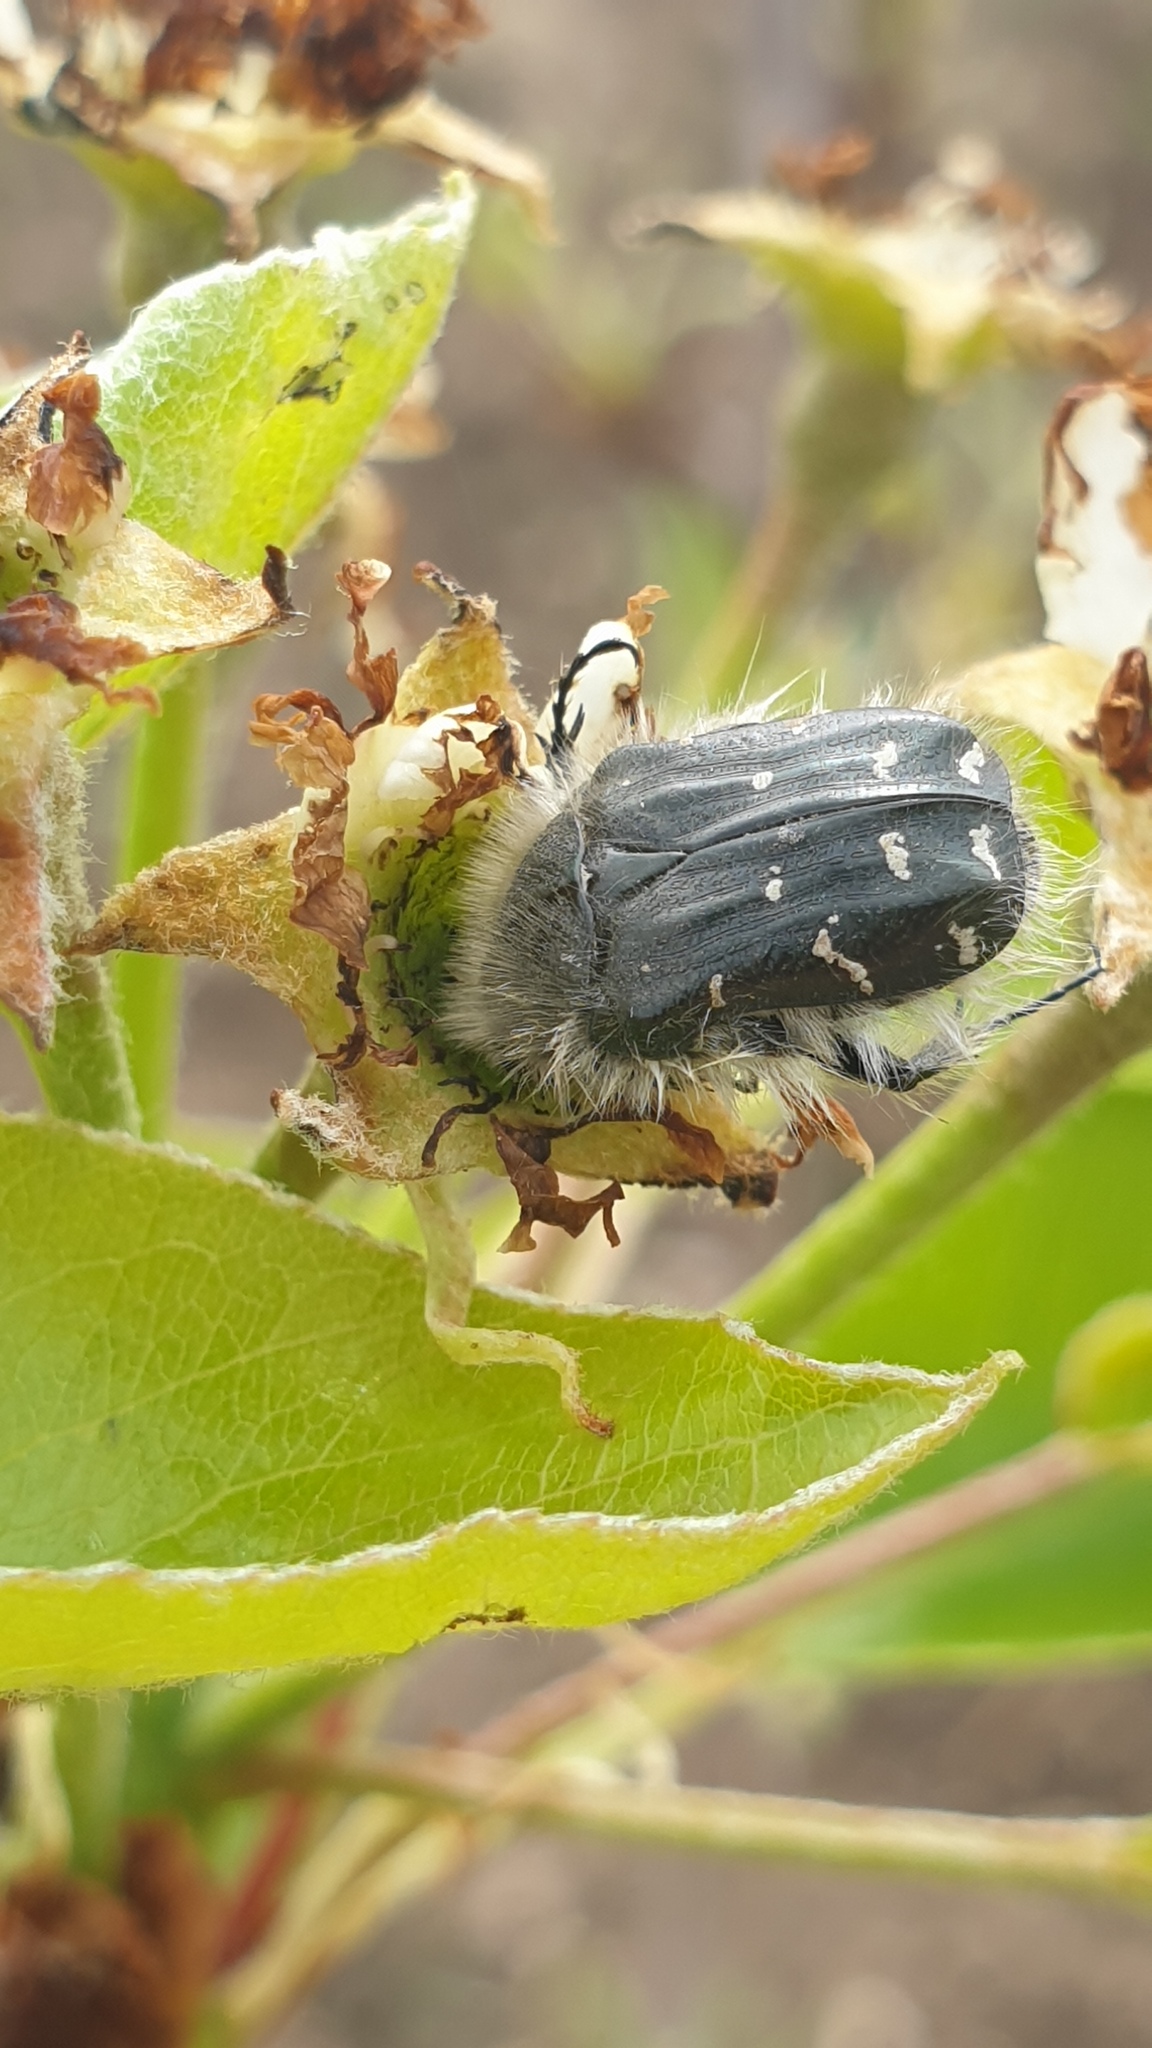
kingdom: Animalia
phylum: Arthropoda
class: Insecta
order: Coleoptera
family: Scarabaeidae
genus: Tropinota
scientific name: Tropinota senicula
